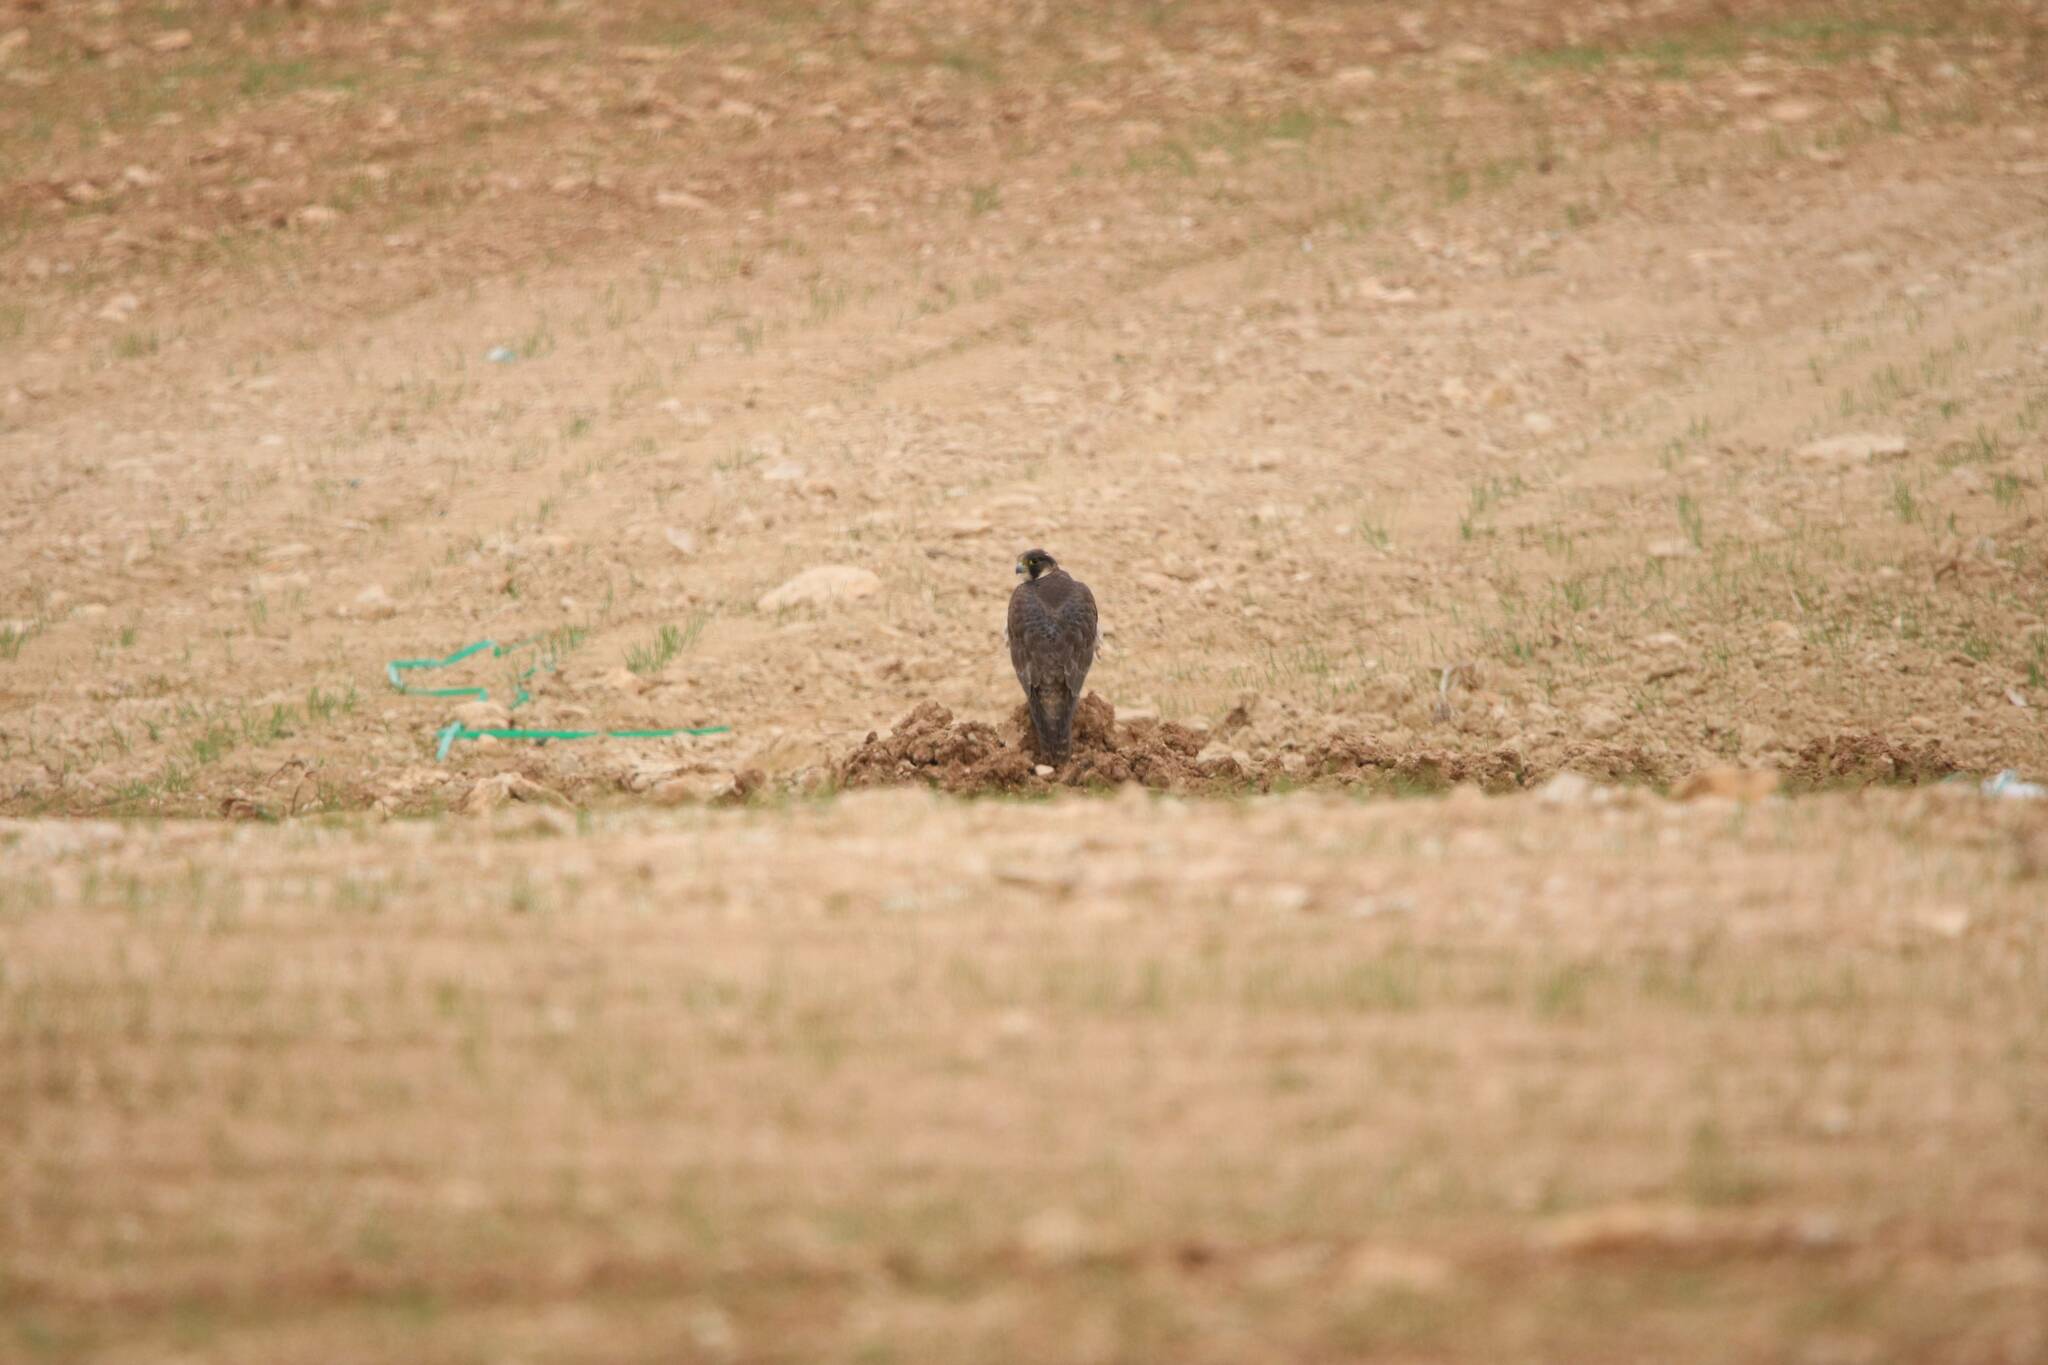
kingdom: Animalia
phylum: Chordata
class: Aves
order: Falconiformes
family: Falconidae
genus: Falco
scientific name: Falco peregrinus
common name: Peregrine falcon
